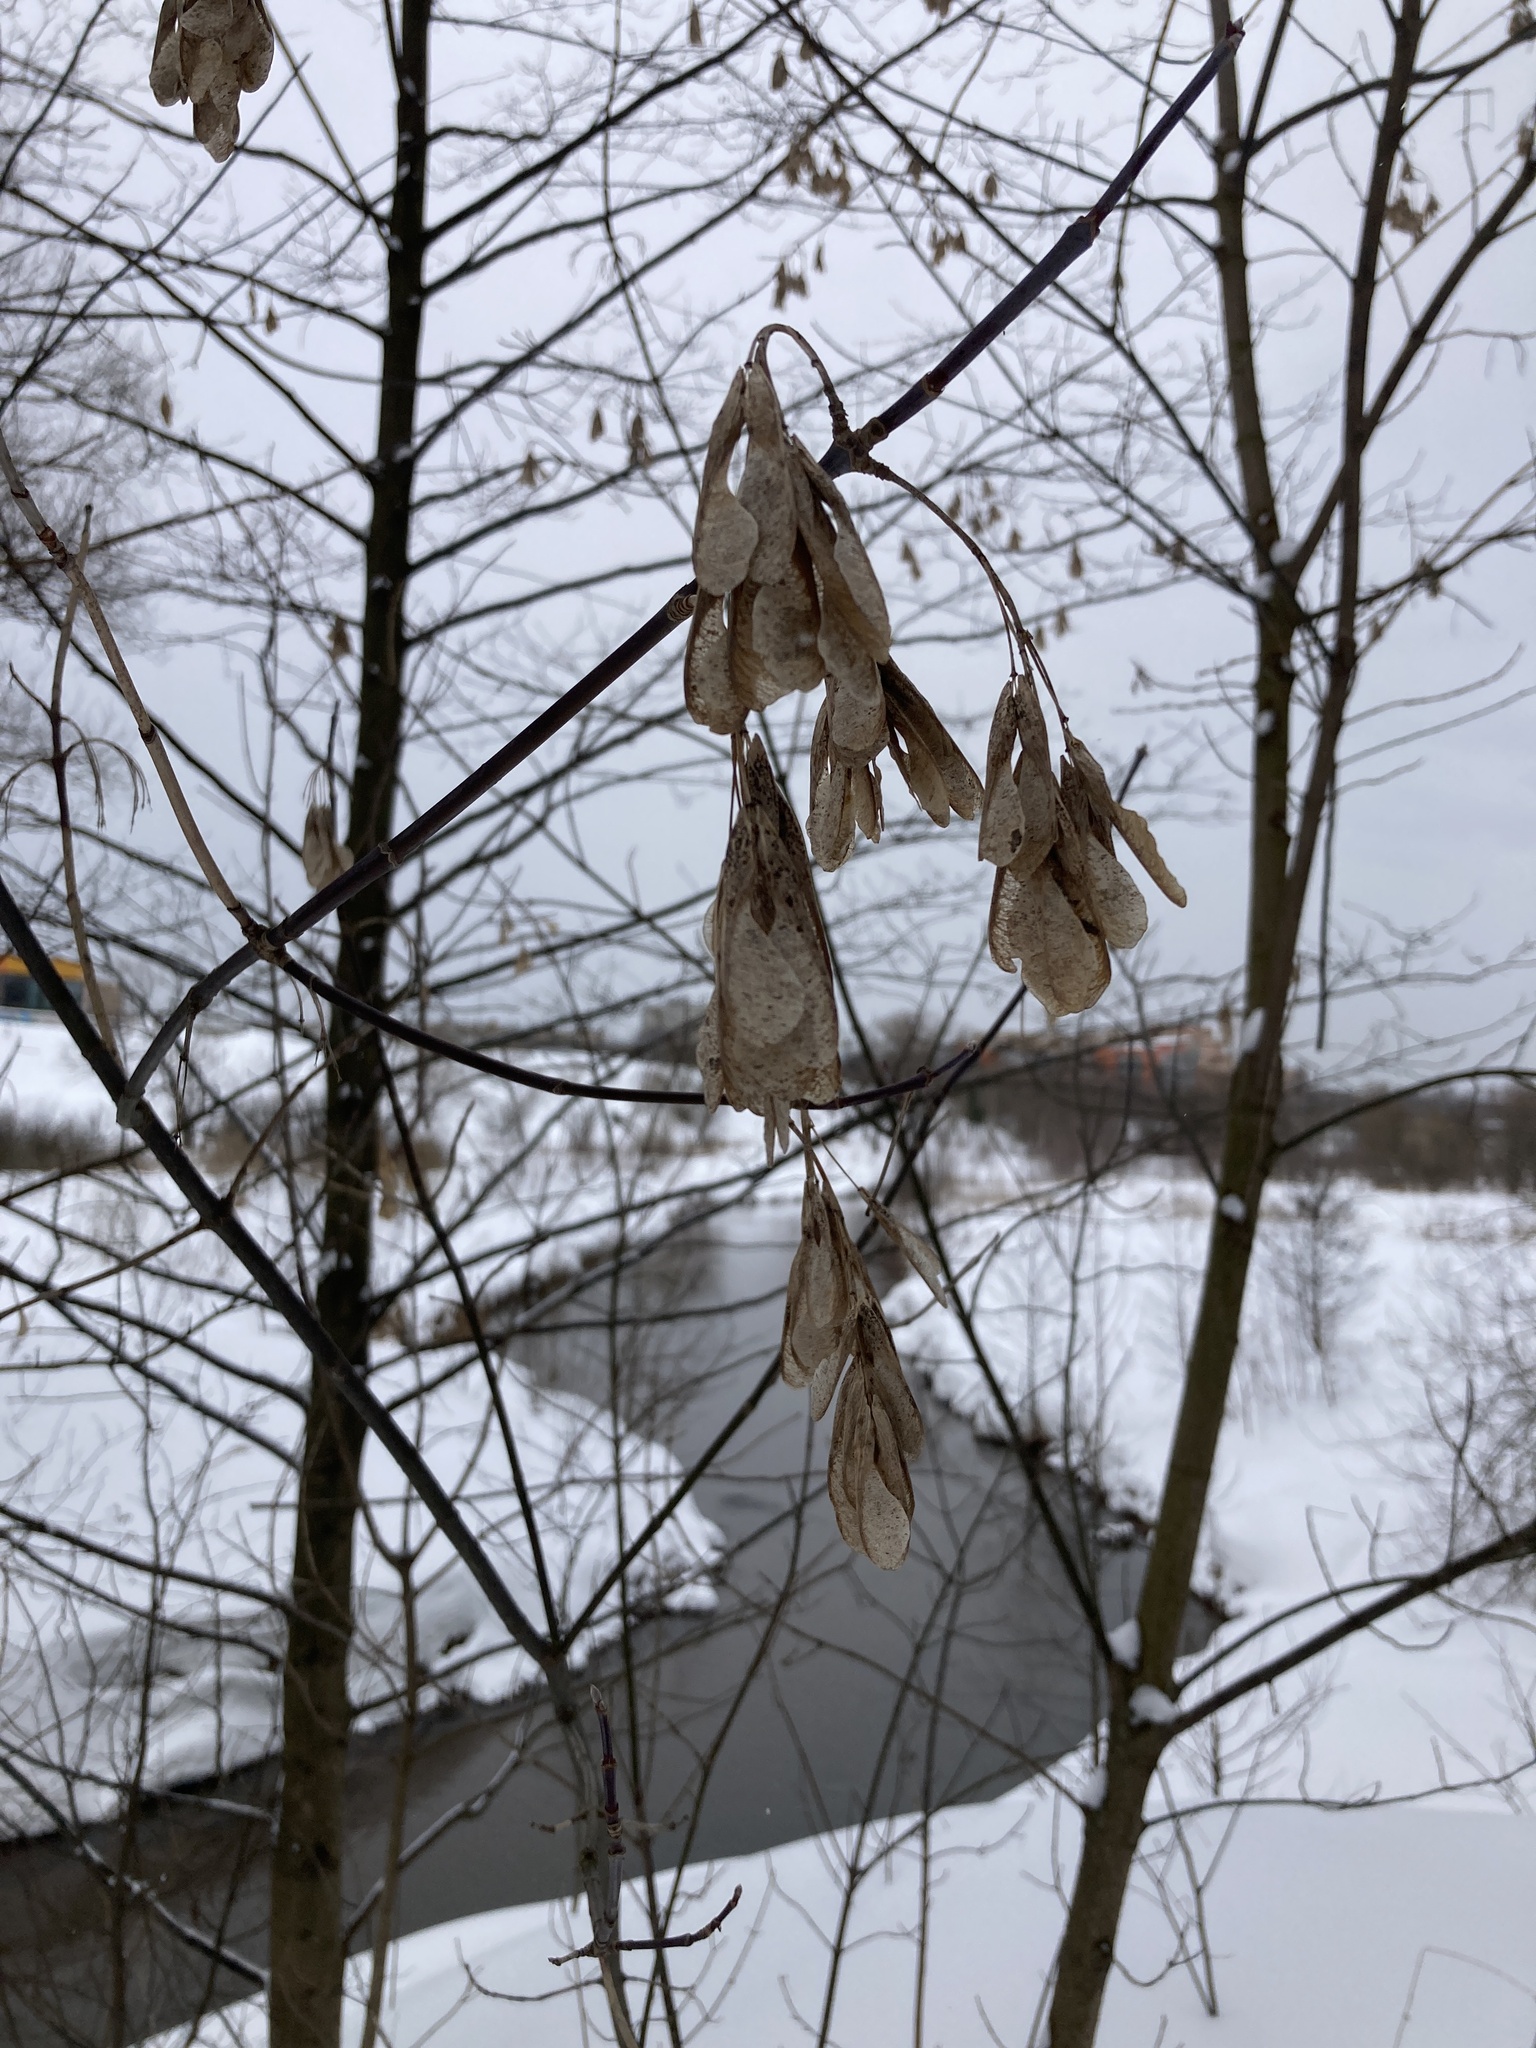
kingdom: Plantae
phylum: Tracheophyta
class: Magnoliopsida
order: Sapindales
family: Sapindaceae
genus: Acer
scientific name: Acer negundo
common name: Ashleaf maple
